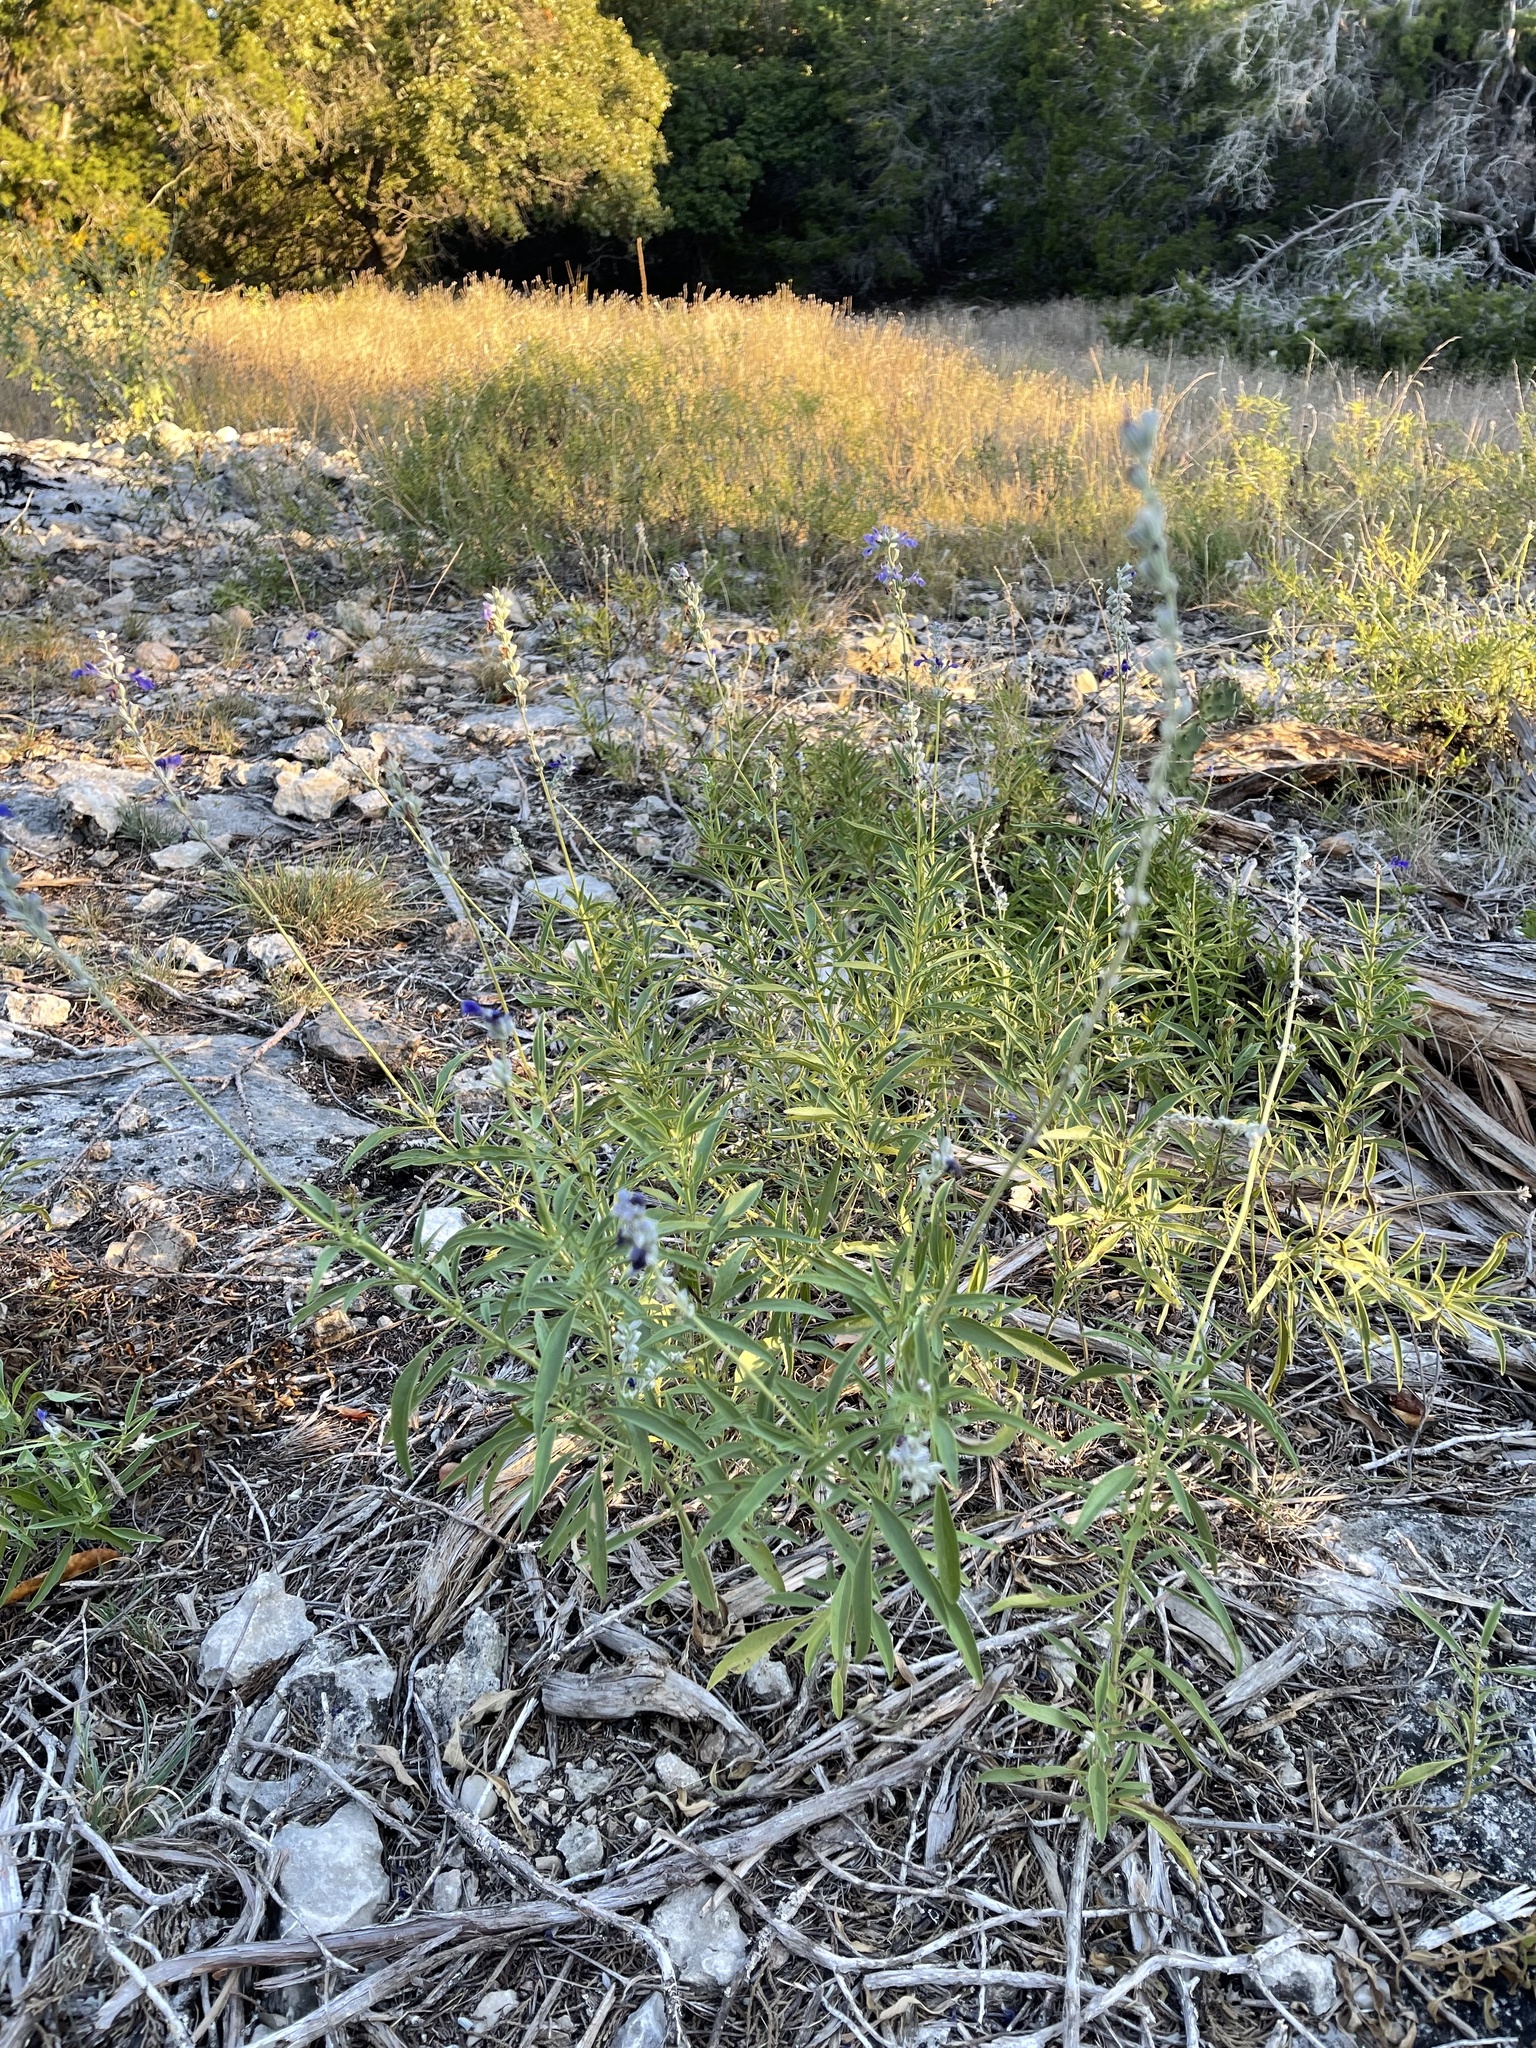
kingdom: Plantae
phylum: Tracheophyta
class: Magnoliopsida
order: Lamiales
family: Lamiaceae
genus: Salvia
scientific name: Salvia farinacea
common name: Mealy sage
